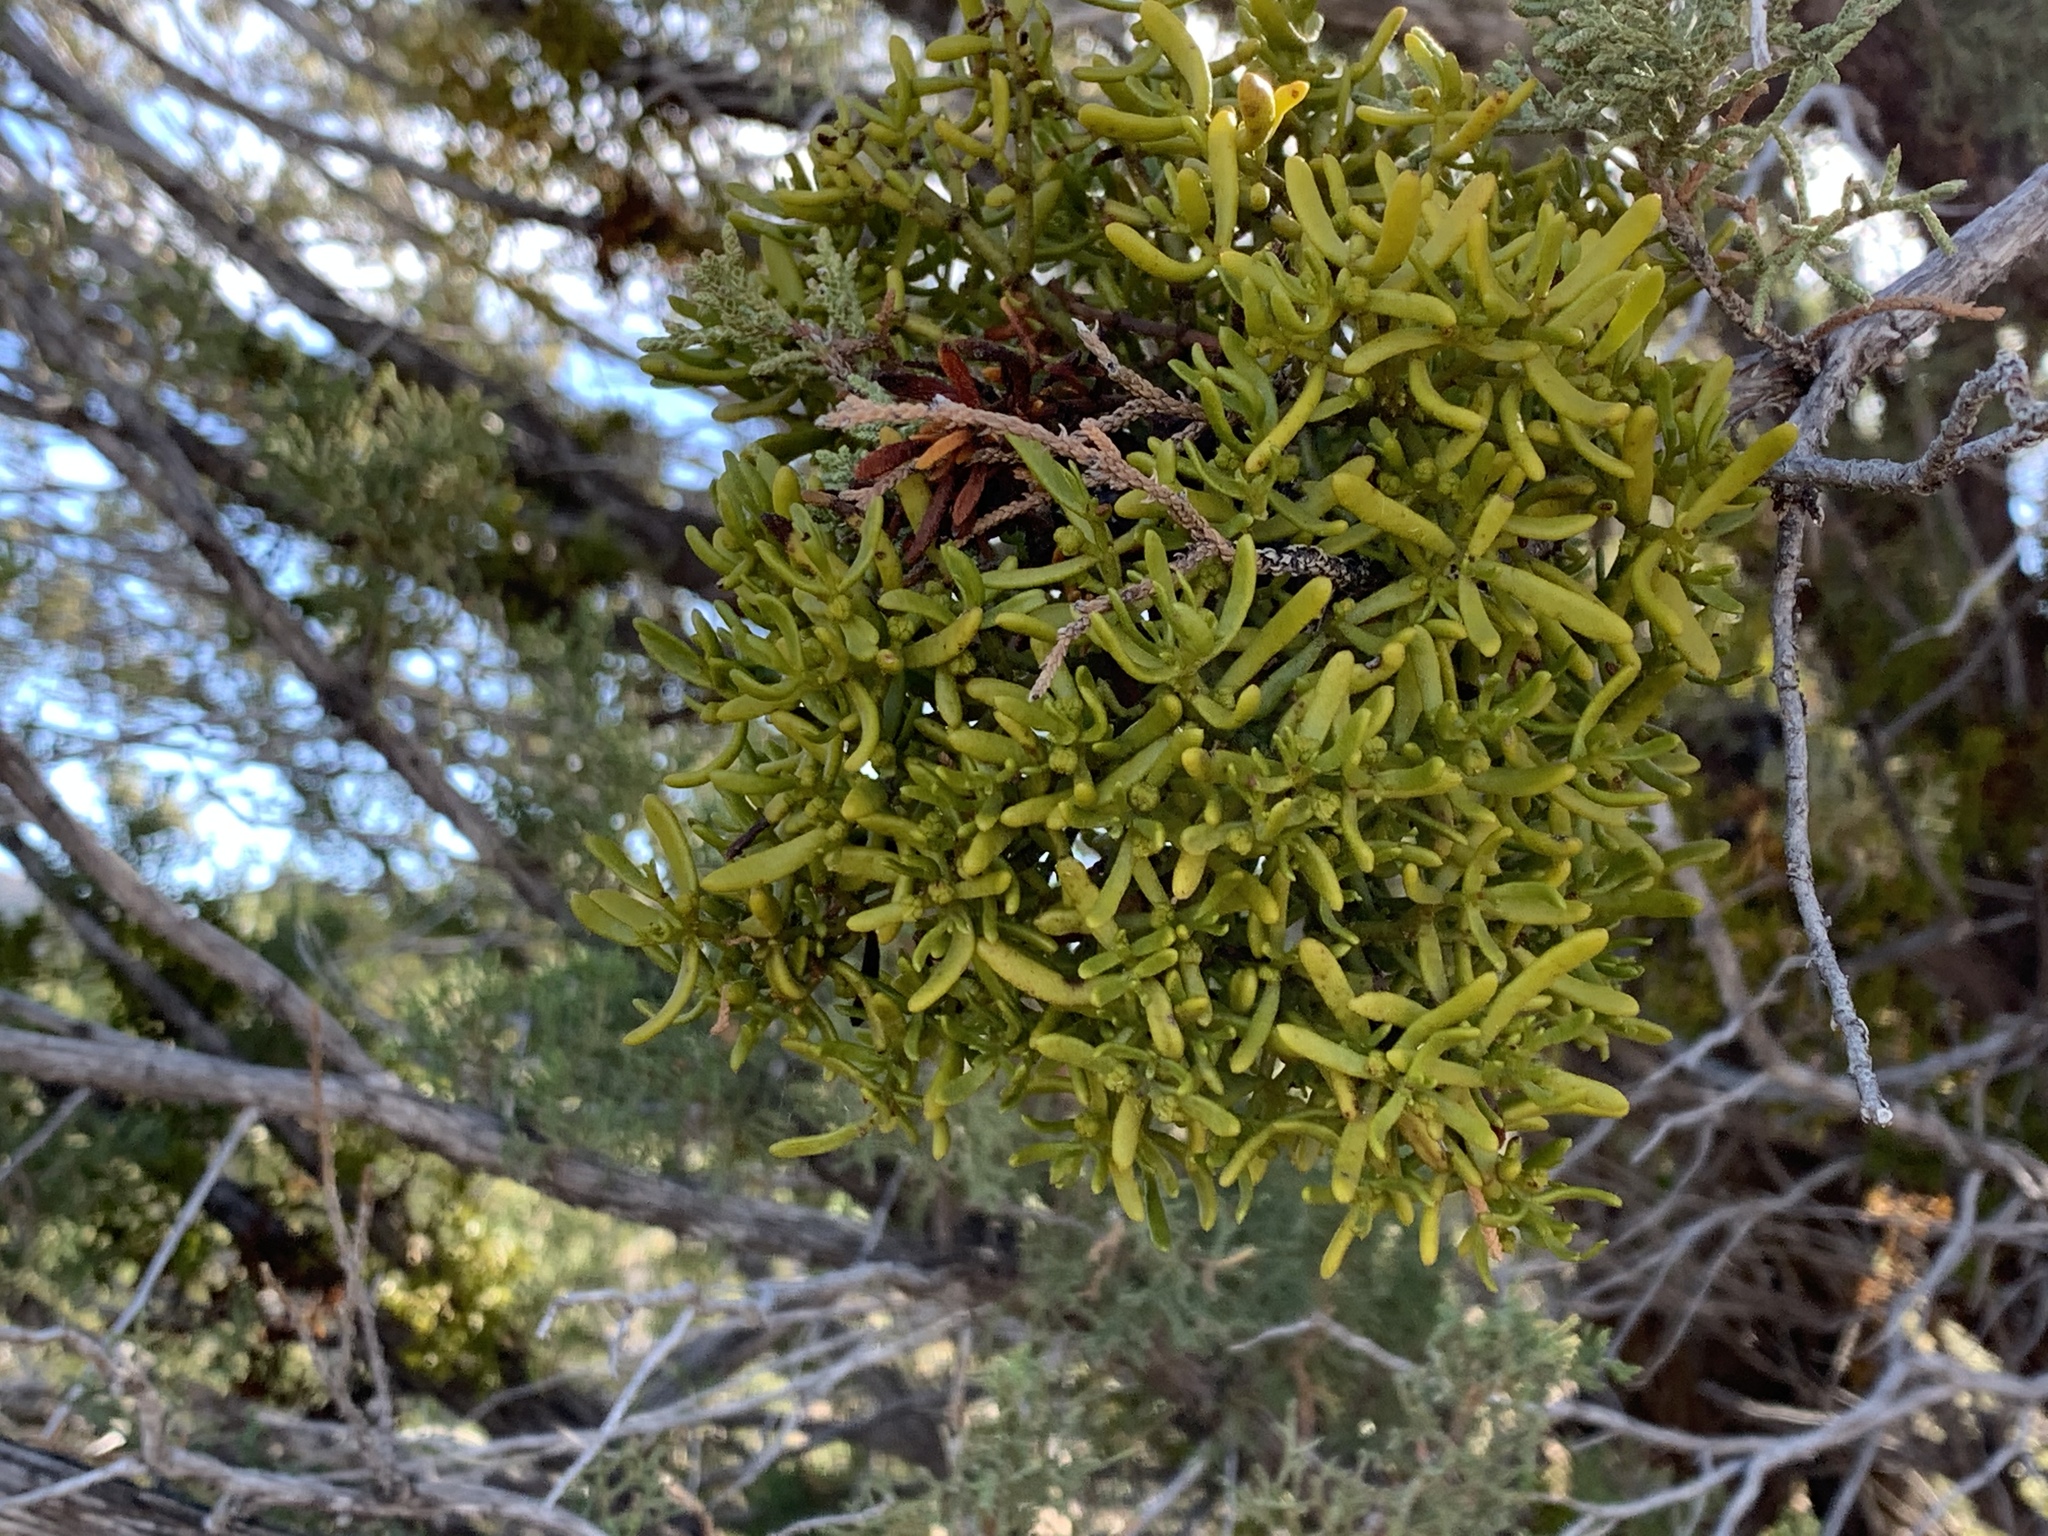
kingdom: Plantae
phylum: Tracheophyta
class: Magnoliopsida
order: Santalales
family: Viscaceae
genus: Phoradendron
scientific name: Phoradendron hawksworthii
